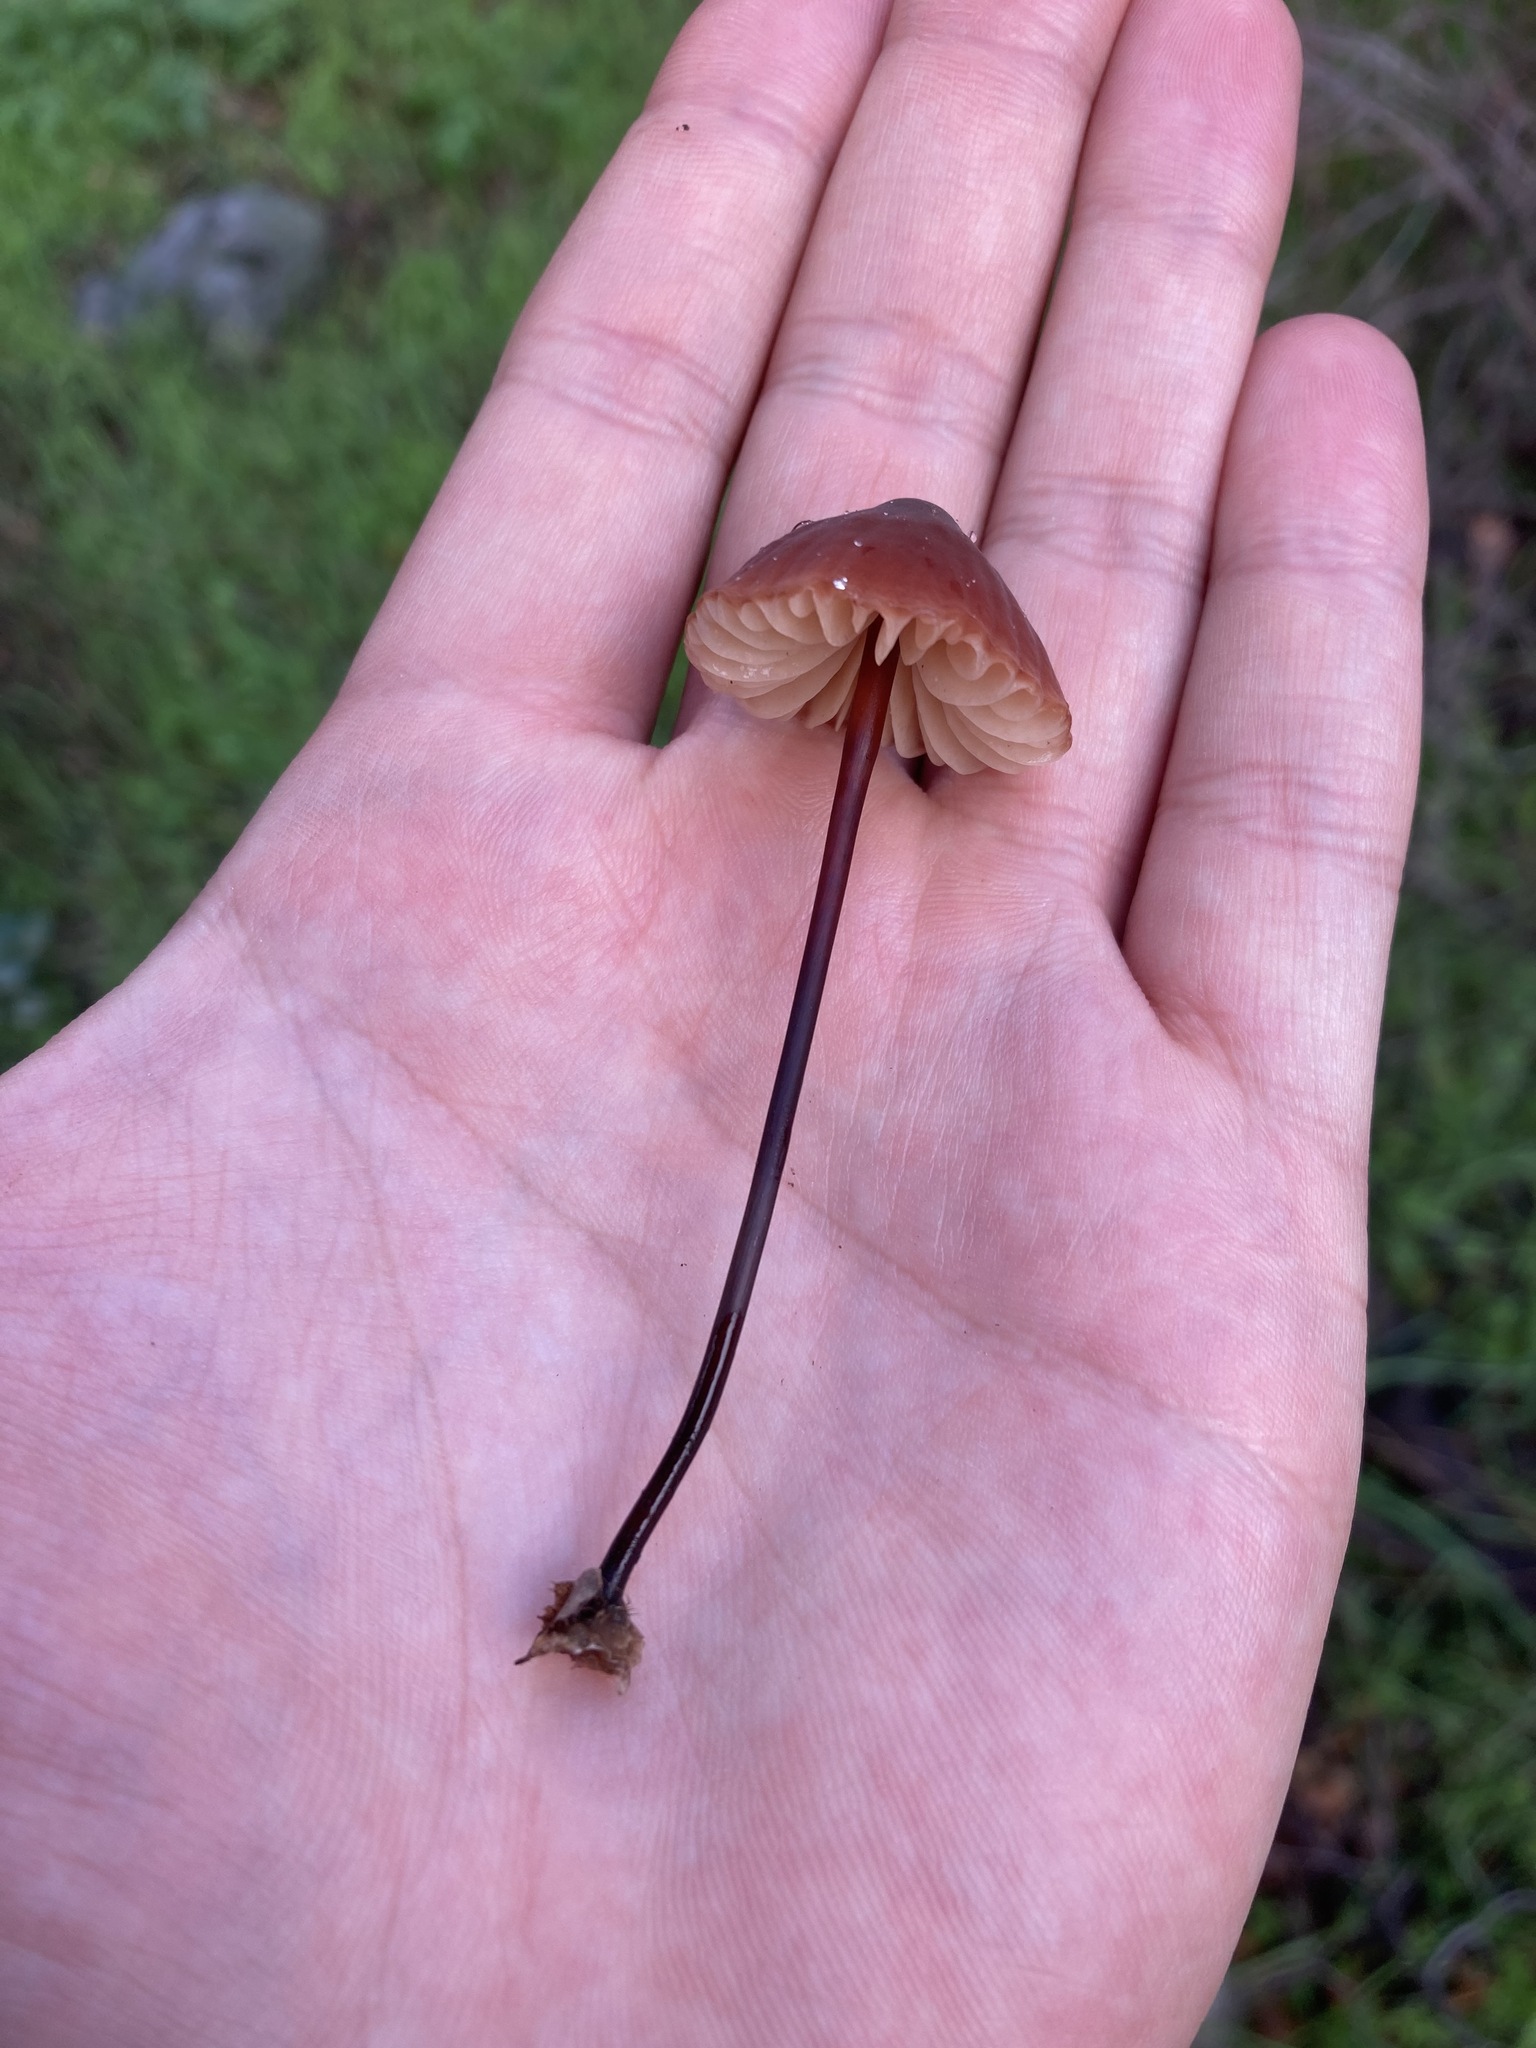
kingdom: Fungi
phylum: Basidiomycota
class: Agaricomycetes
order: Agaricales
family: Marasmiaceae
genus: Marasmius
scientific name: Marasmius plicatulus
